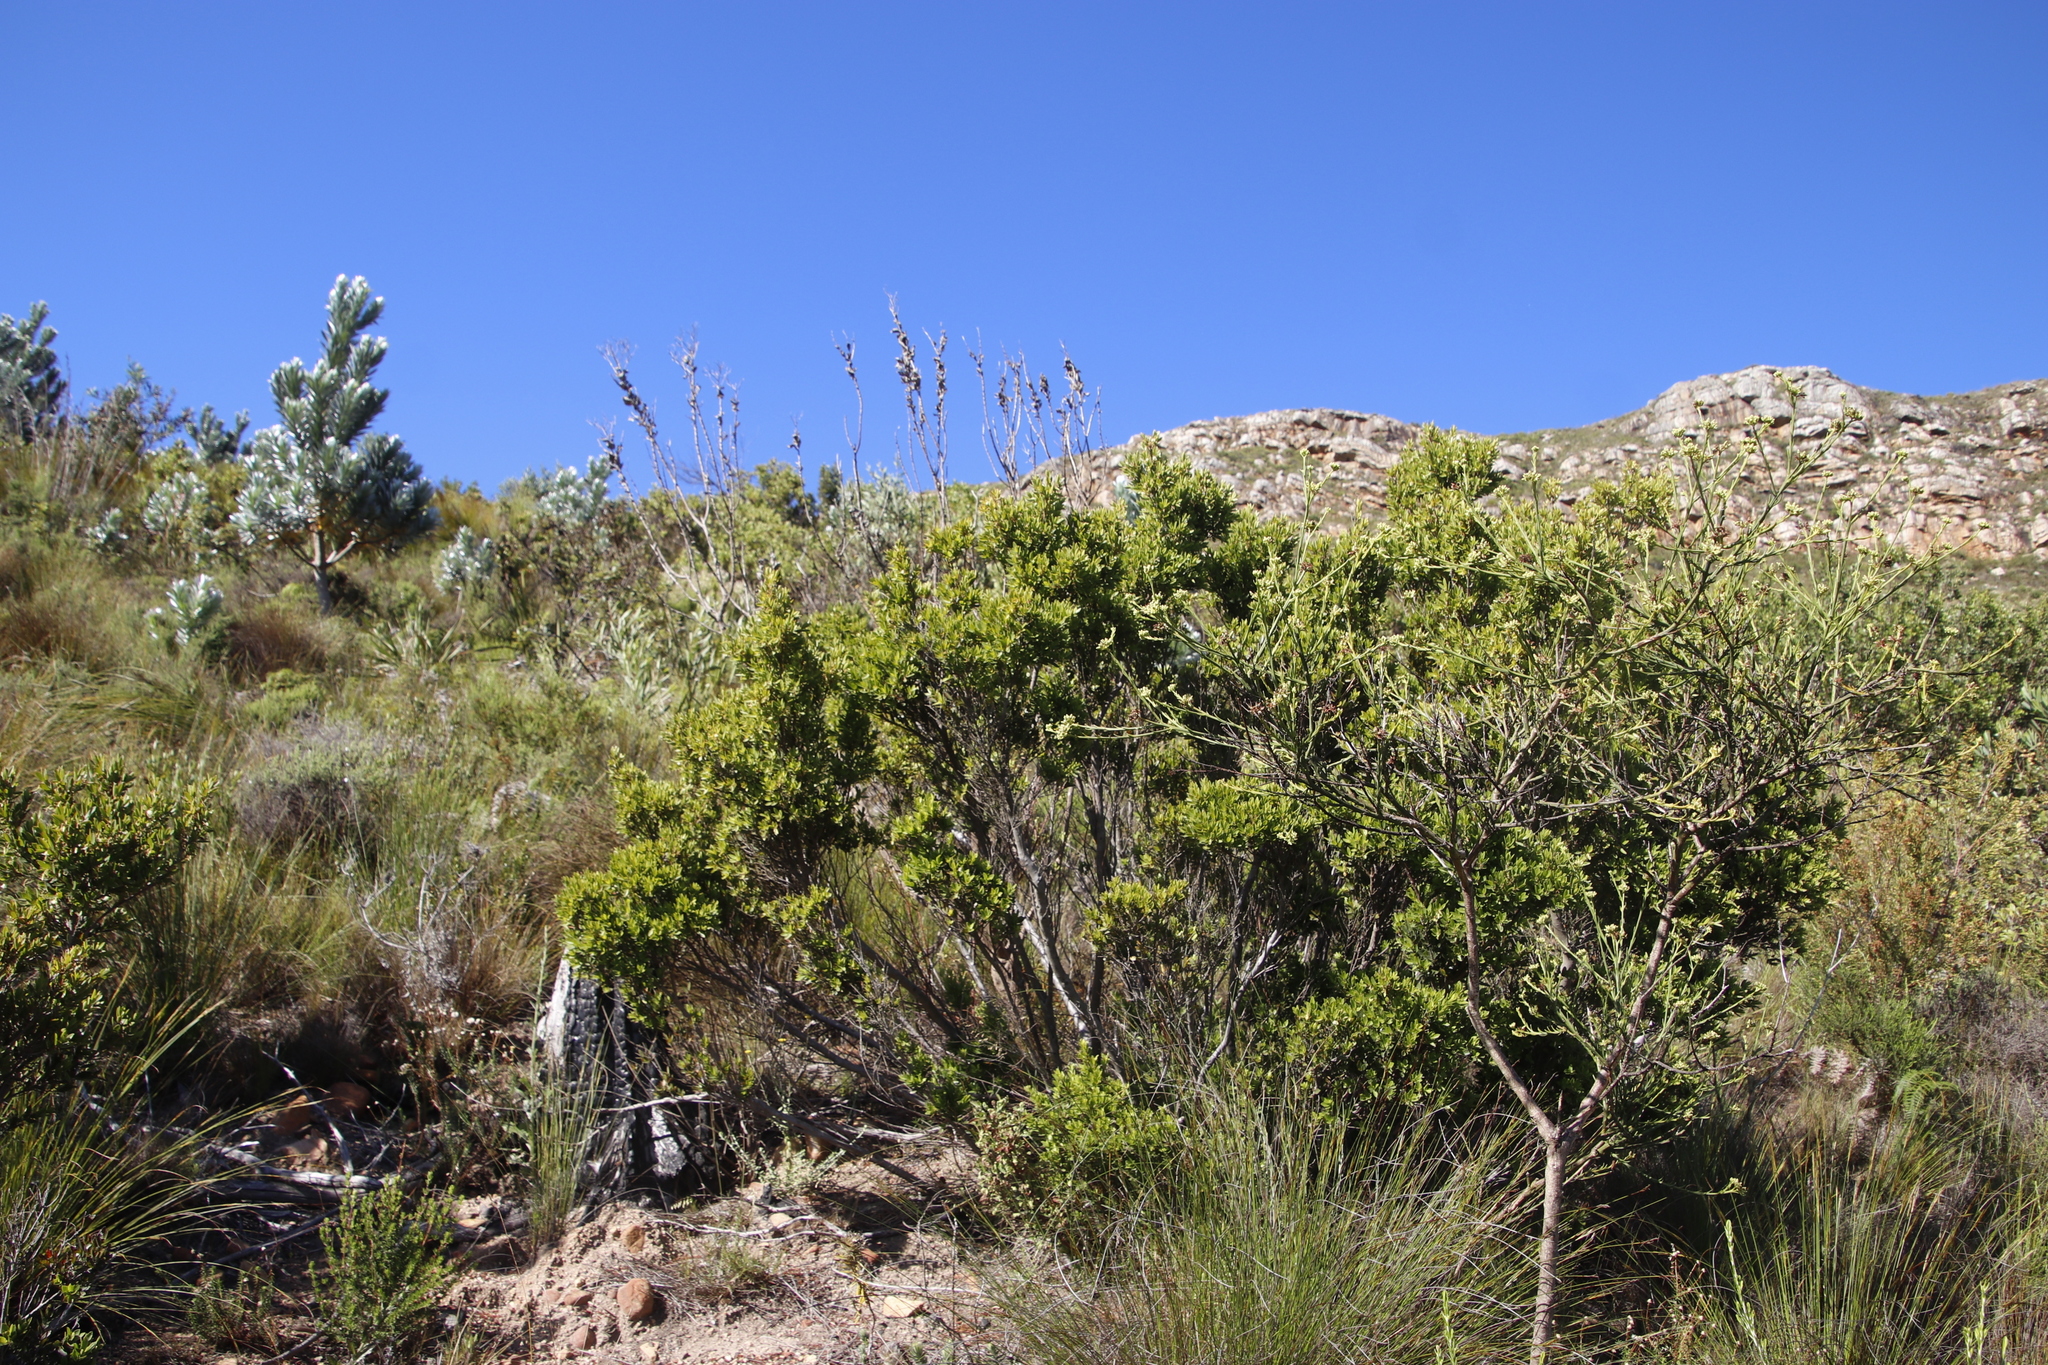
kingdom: Plantae
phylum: Tracheophyta
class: Magnoliopsida
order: Ericales
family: Ebenaceae
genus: Diospyros
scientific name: Diospyros glabra
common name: Fynbos star apple
